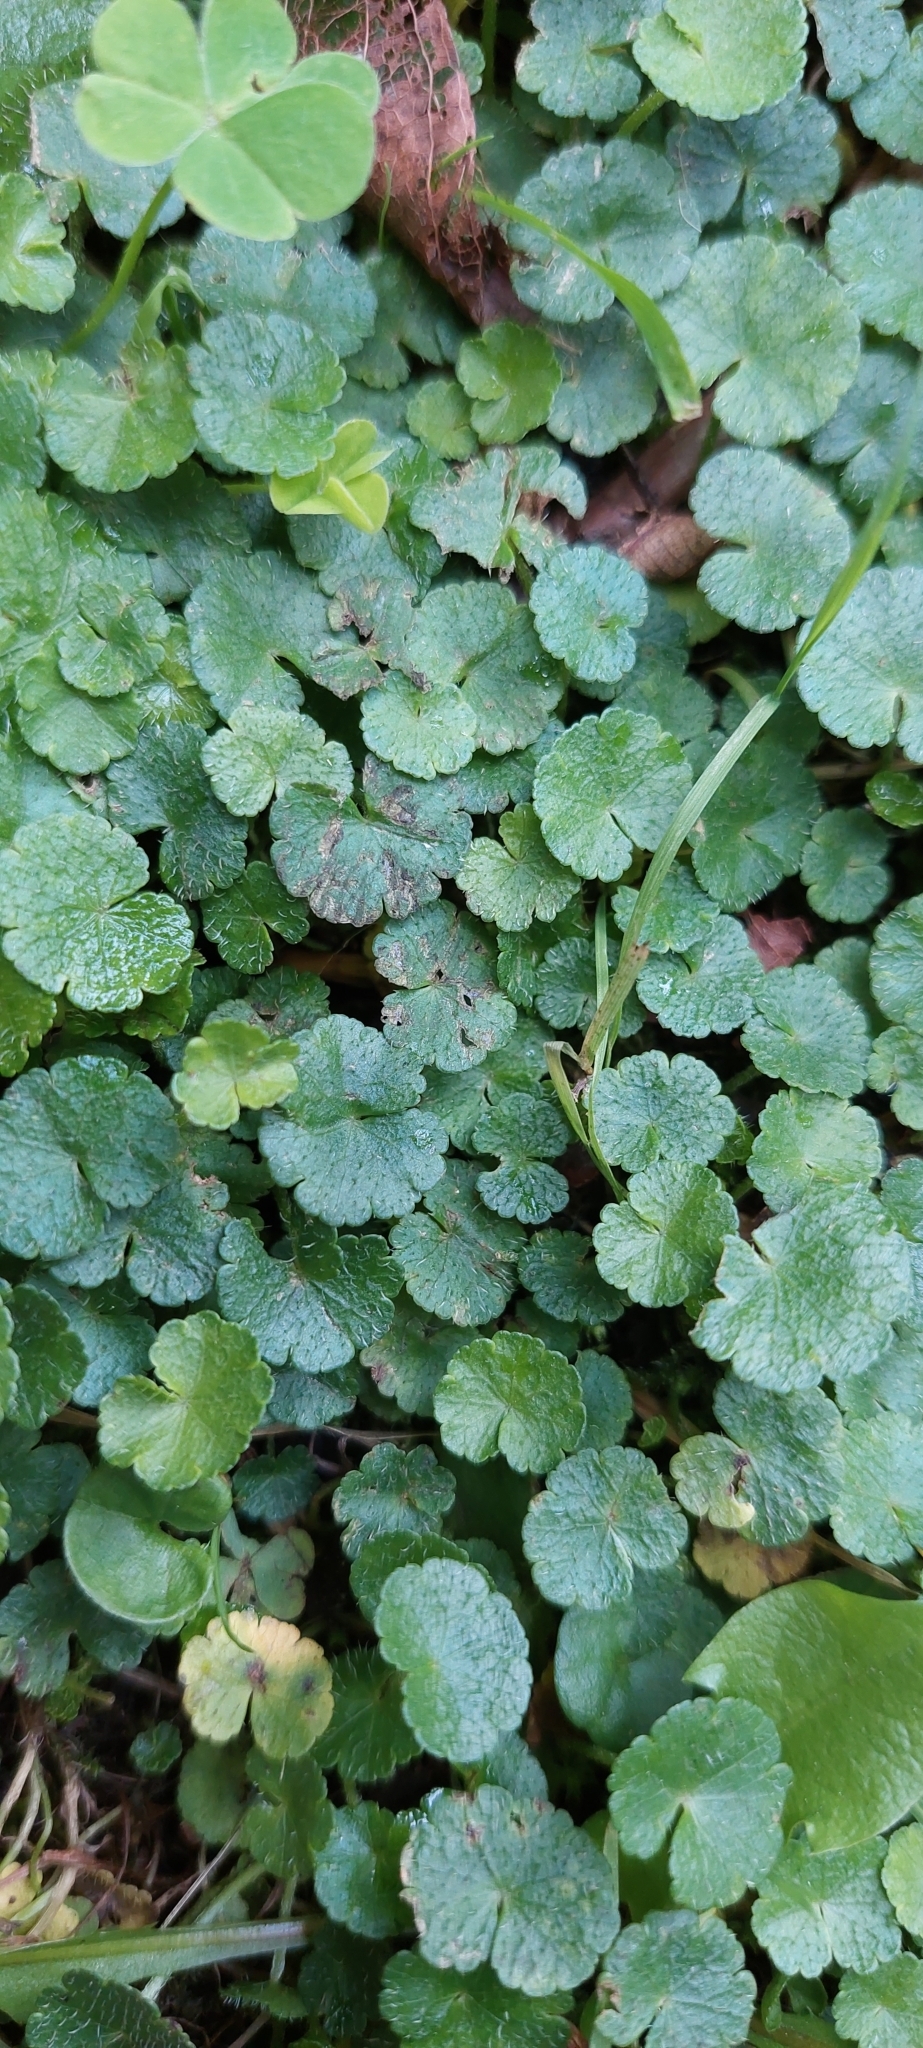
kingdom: Plantae
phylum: Tracheophyta
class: Magnoliopsida
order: Apiales
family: Araliaceae
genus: Hydrocotyle
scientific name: Hydrocotyle bonplandii
